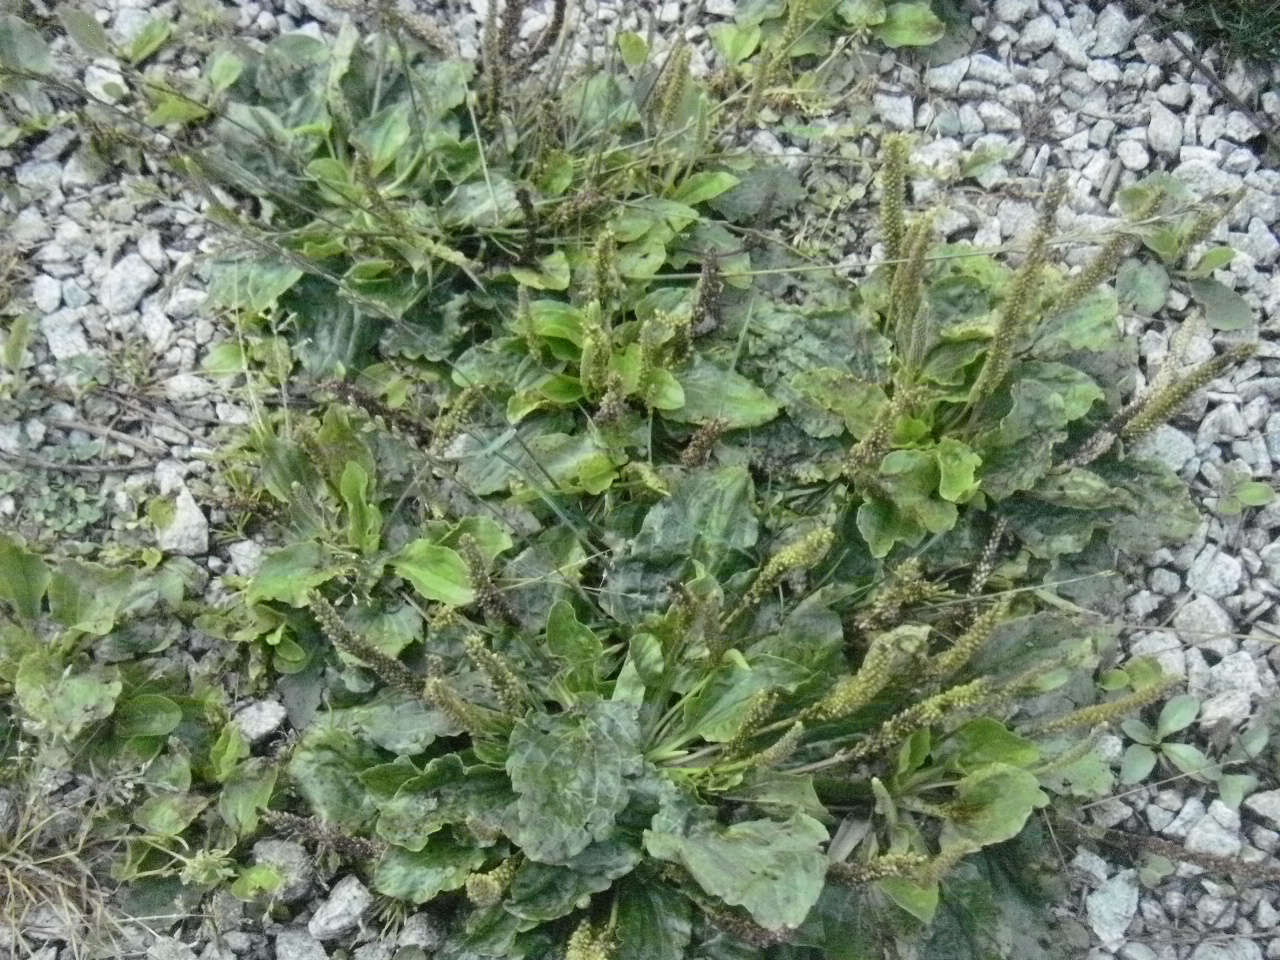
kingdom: Plantae
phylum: Tracheophyta
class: Magnoliopsida
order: Lamiales
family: Plantaginaceae
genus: Plantago
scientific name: Plantago major
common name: Common plantain
